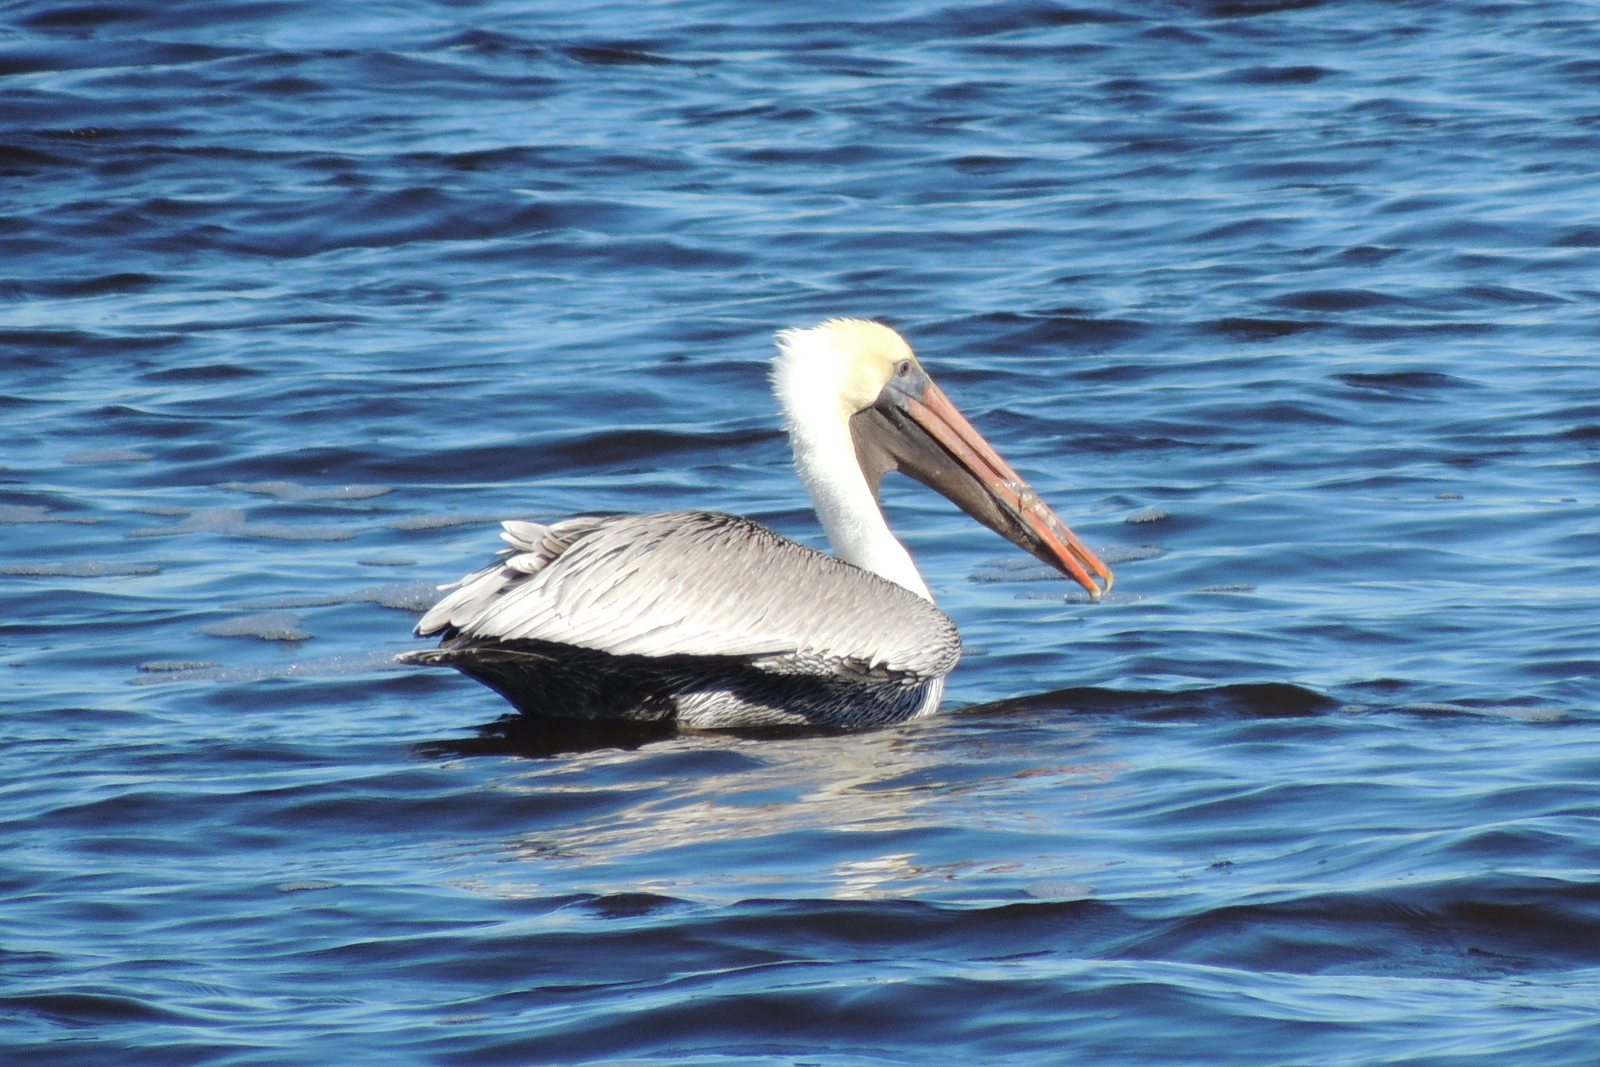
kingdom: Animalia
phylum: Chordata
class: Aves
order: Pelecaniformes
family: Pelecanidae
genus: Pelecanus
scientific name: Pelecanus occidentalis
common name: Brown pelican
